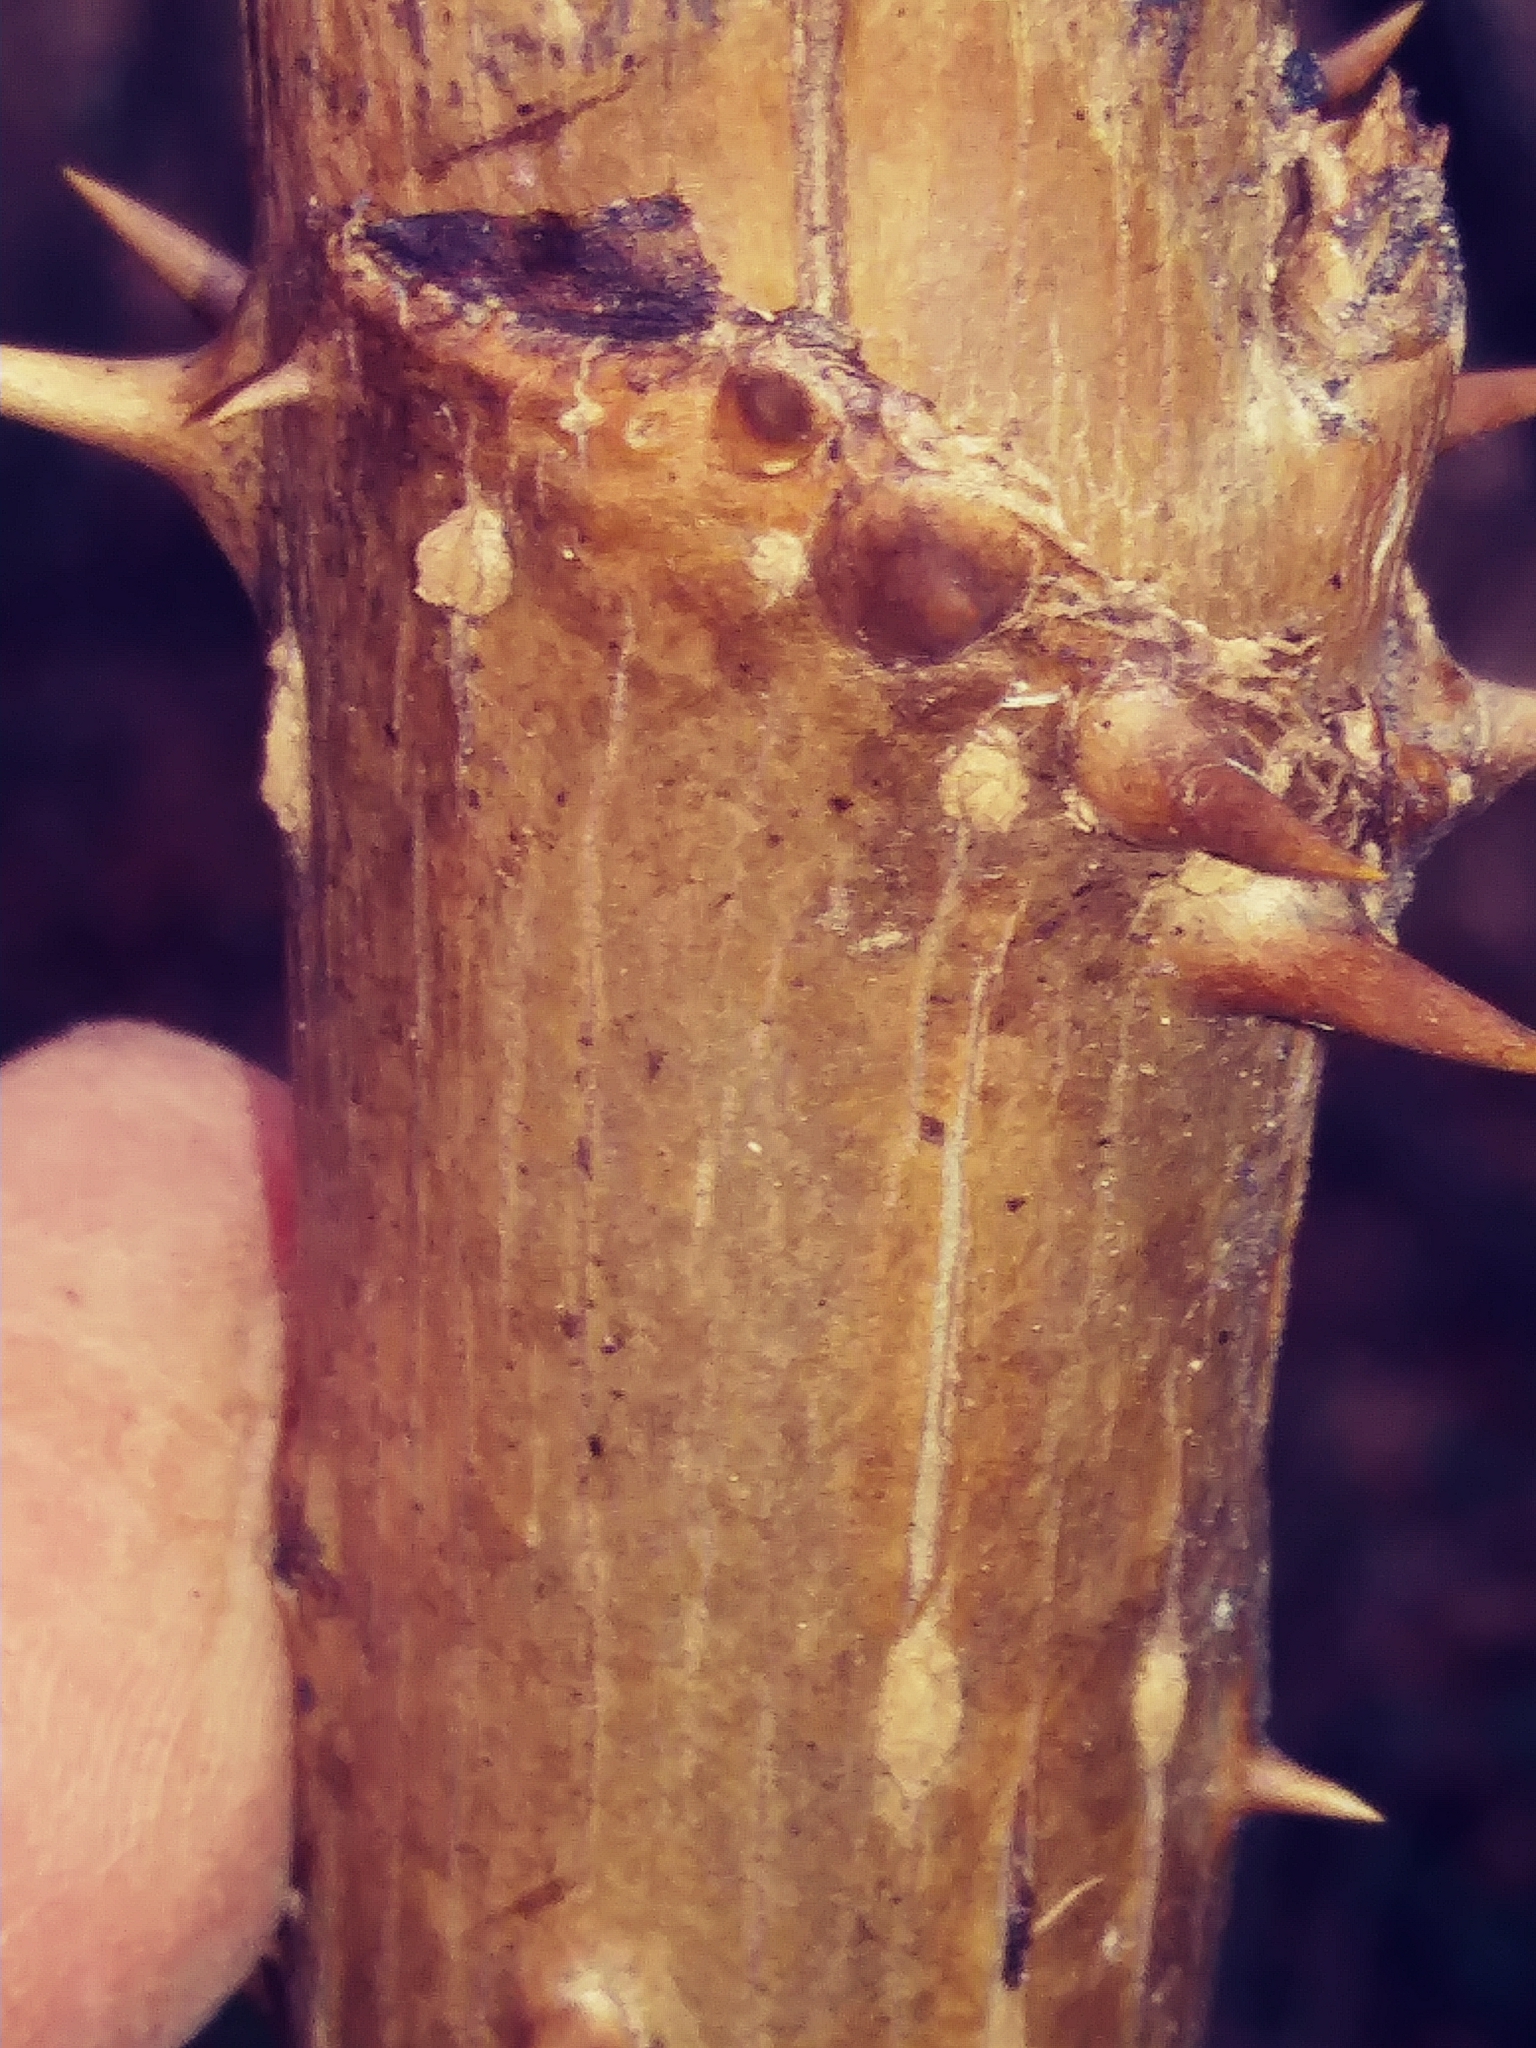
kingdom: Plantae
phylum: Tracheophyta
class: Magnoliopsida
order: Apiales
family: Araliaceae
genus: Aralia
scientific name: Aralia spinosa
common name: Hercules'-club
